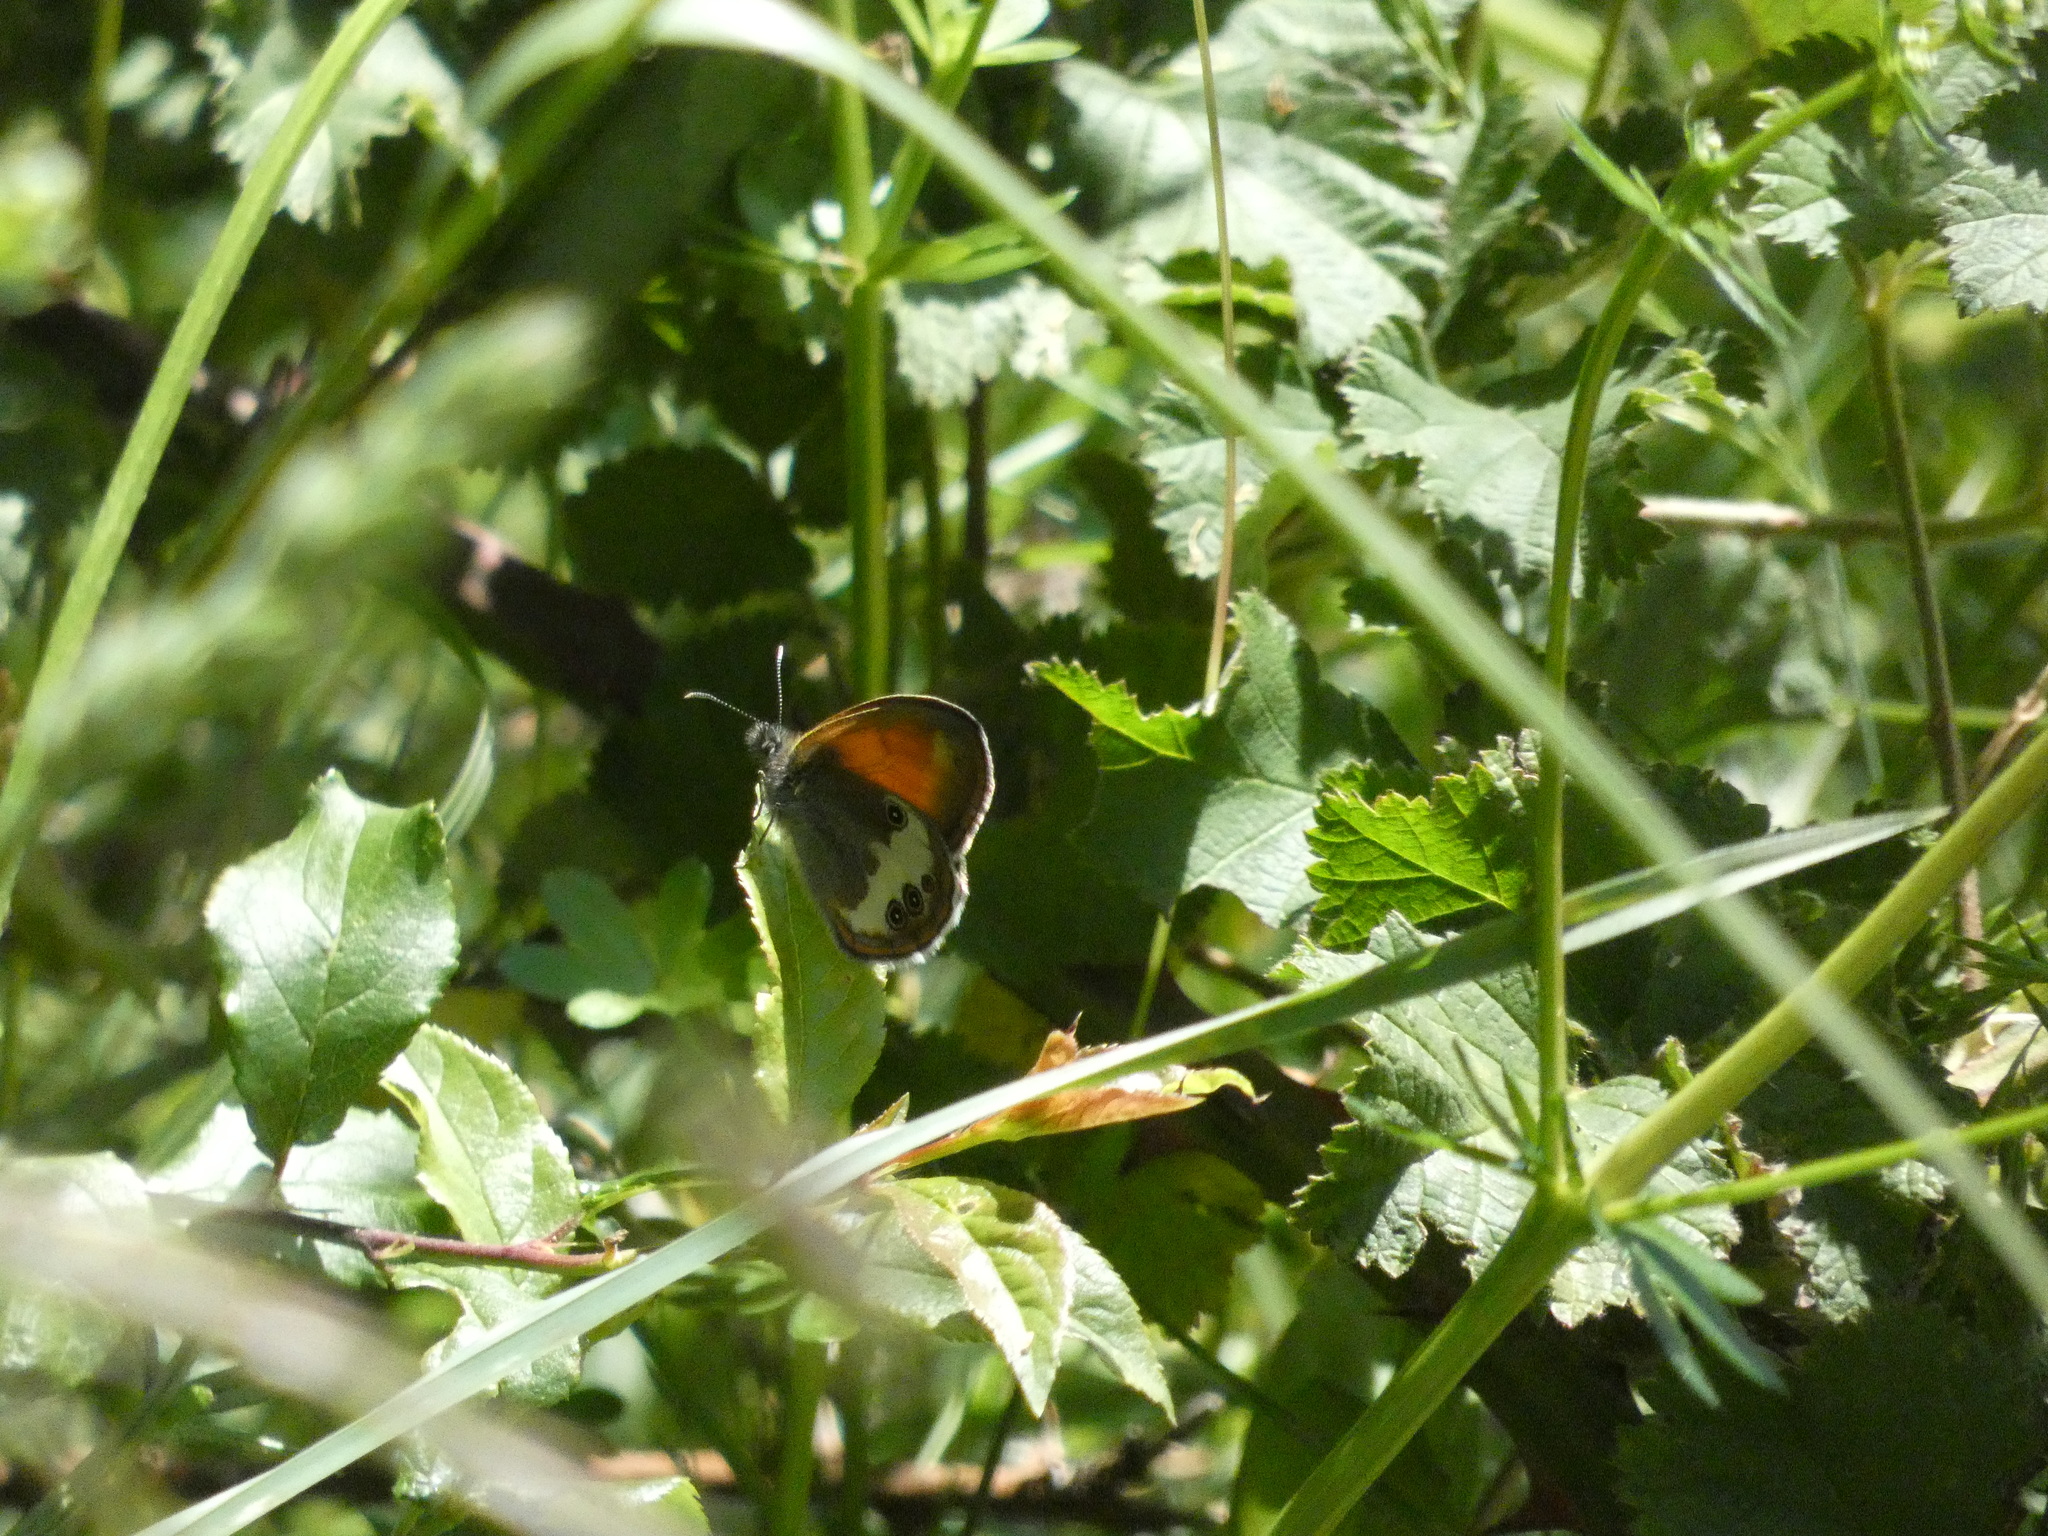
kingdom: Animalia
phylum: Arthropoda
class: Insecta
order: Lepidoptera
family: Nymphalidae
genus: Coenonympha
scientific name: Coenonympha arcania
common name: Pearly heath
